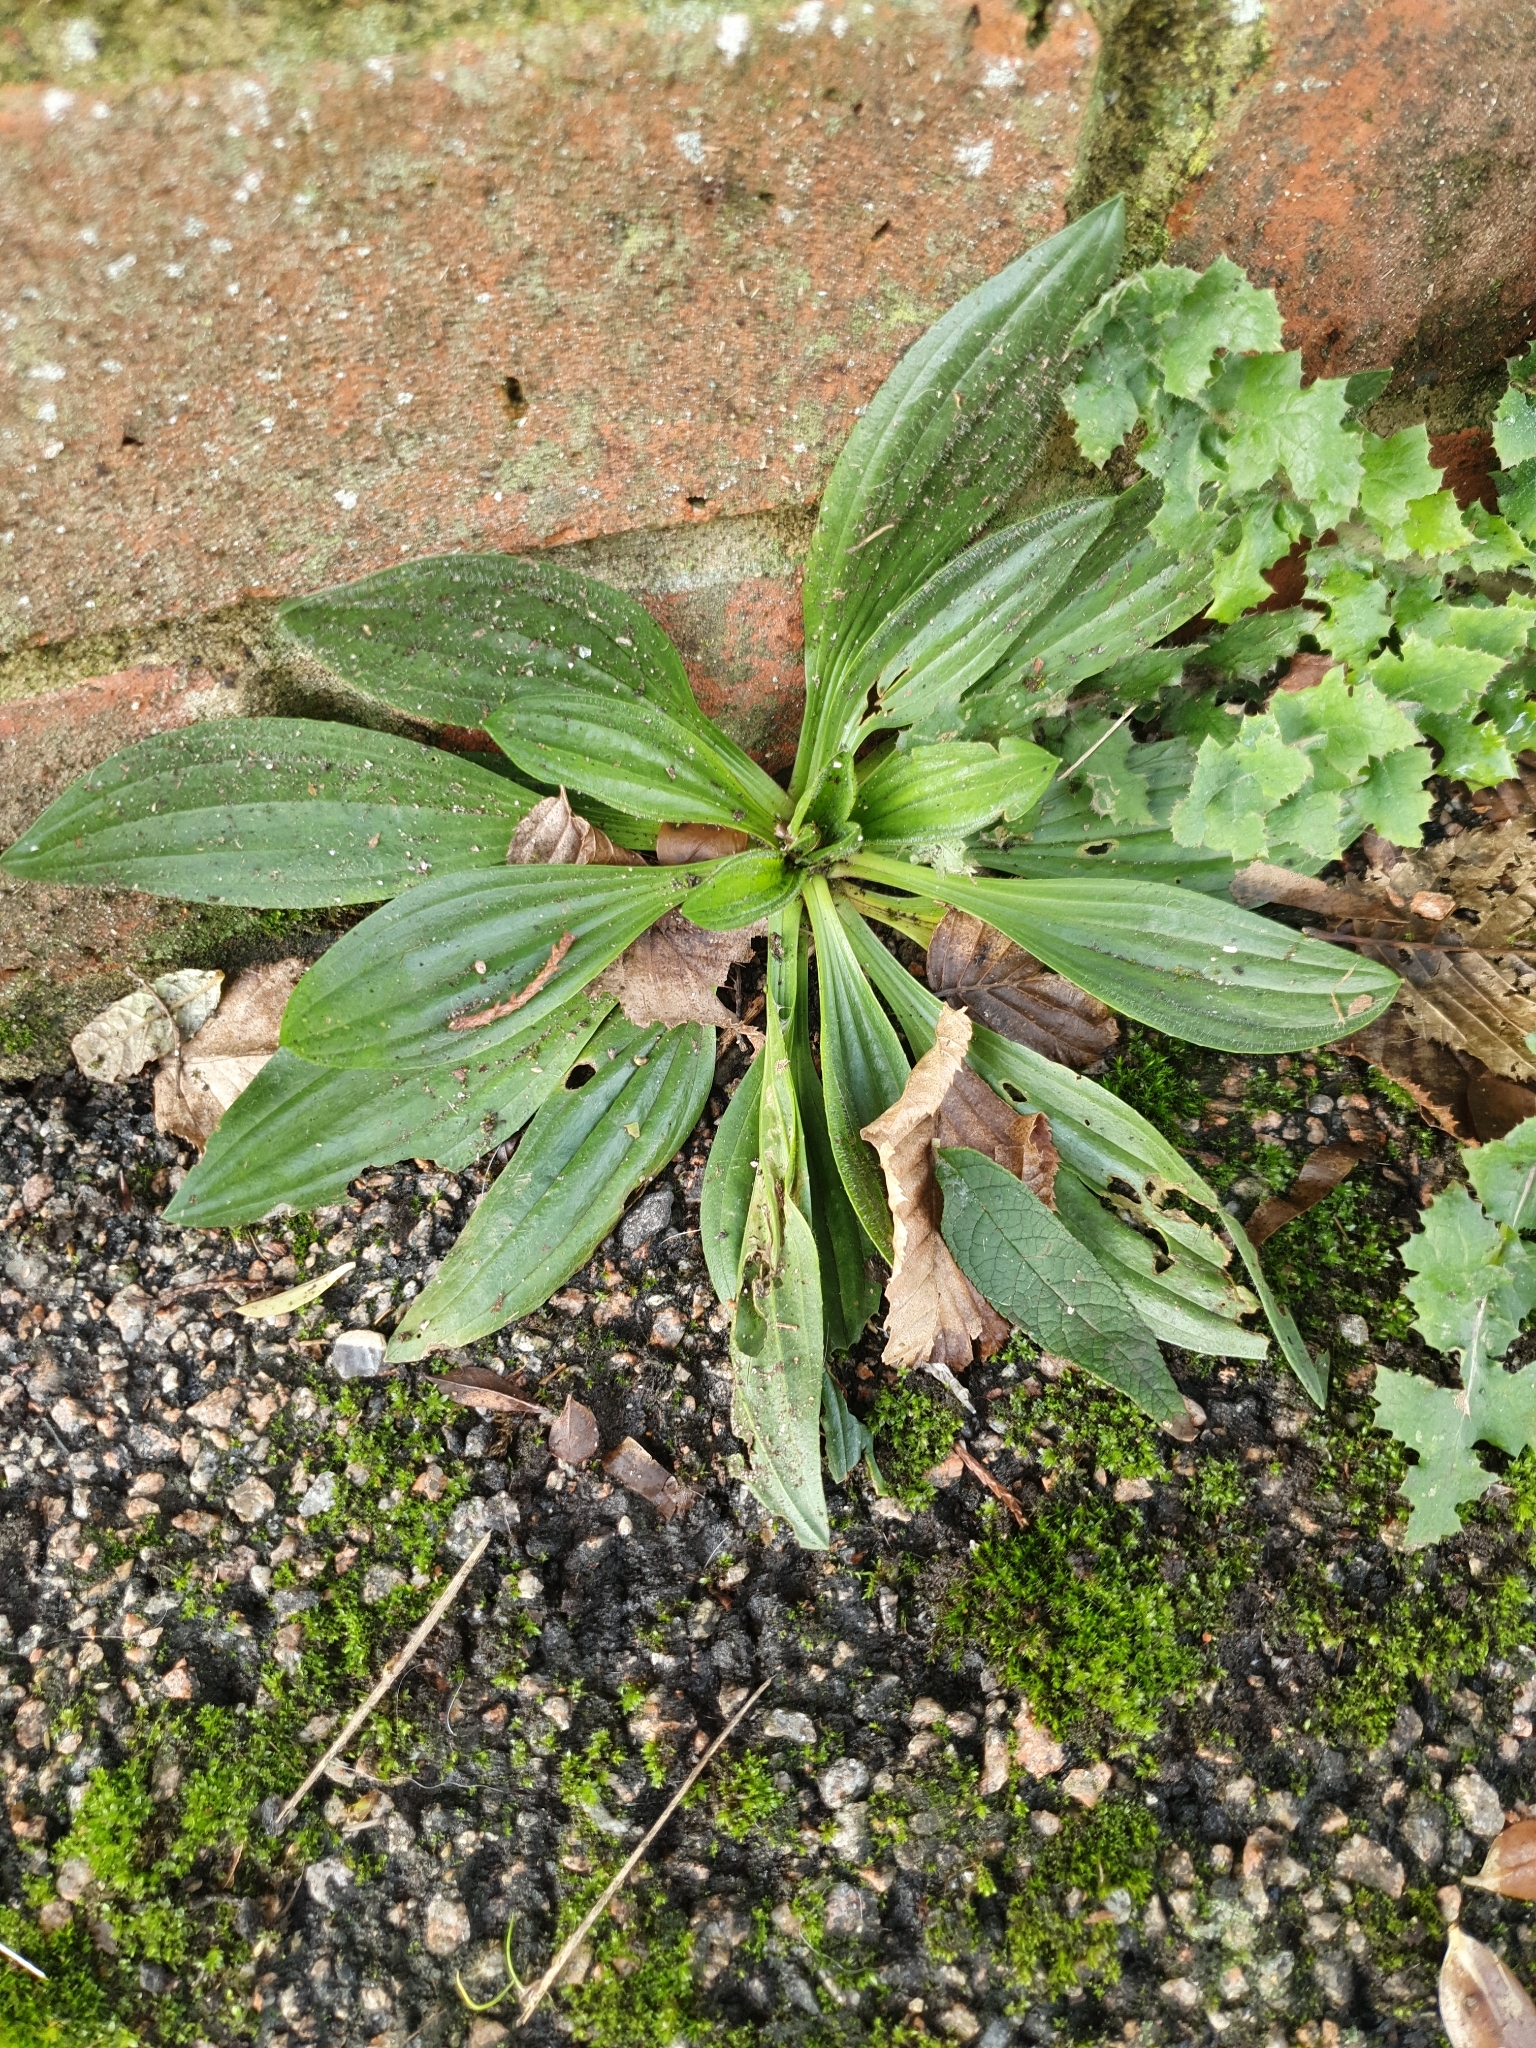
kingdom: Plantae
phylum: Tracheophyta
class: Magnoliopsida
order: Lamiales
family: Plantaginaceae
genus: Plantago
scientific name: Plantago lanceolata
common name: Ribwort plantain
